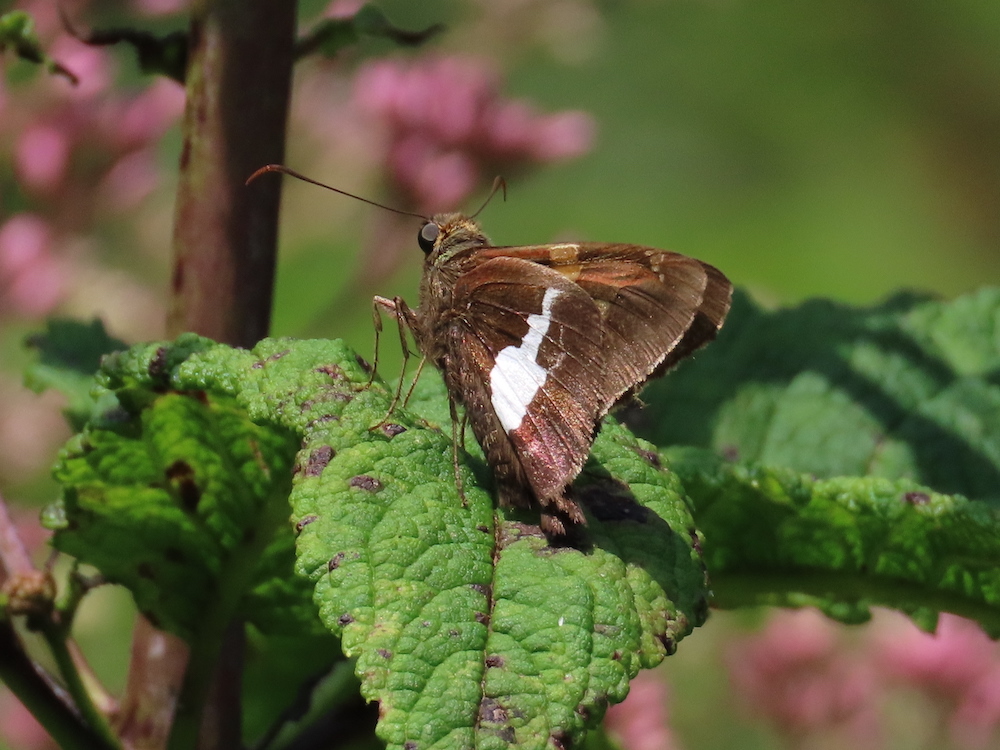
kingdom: Animalia
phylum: Arthropoda
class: Insecta
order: Lepidoptera
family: Hesperiidae
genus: Epargyreus
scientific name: Epargyreus clarus
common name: Silver-spotted skipper
